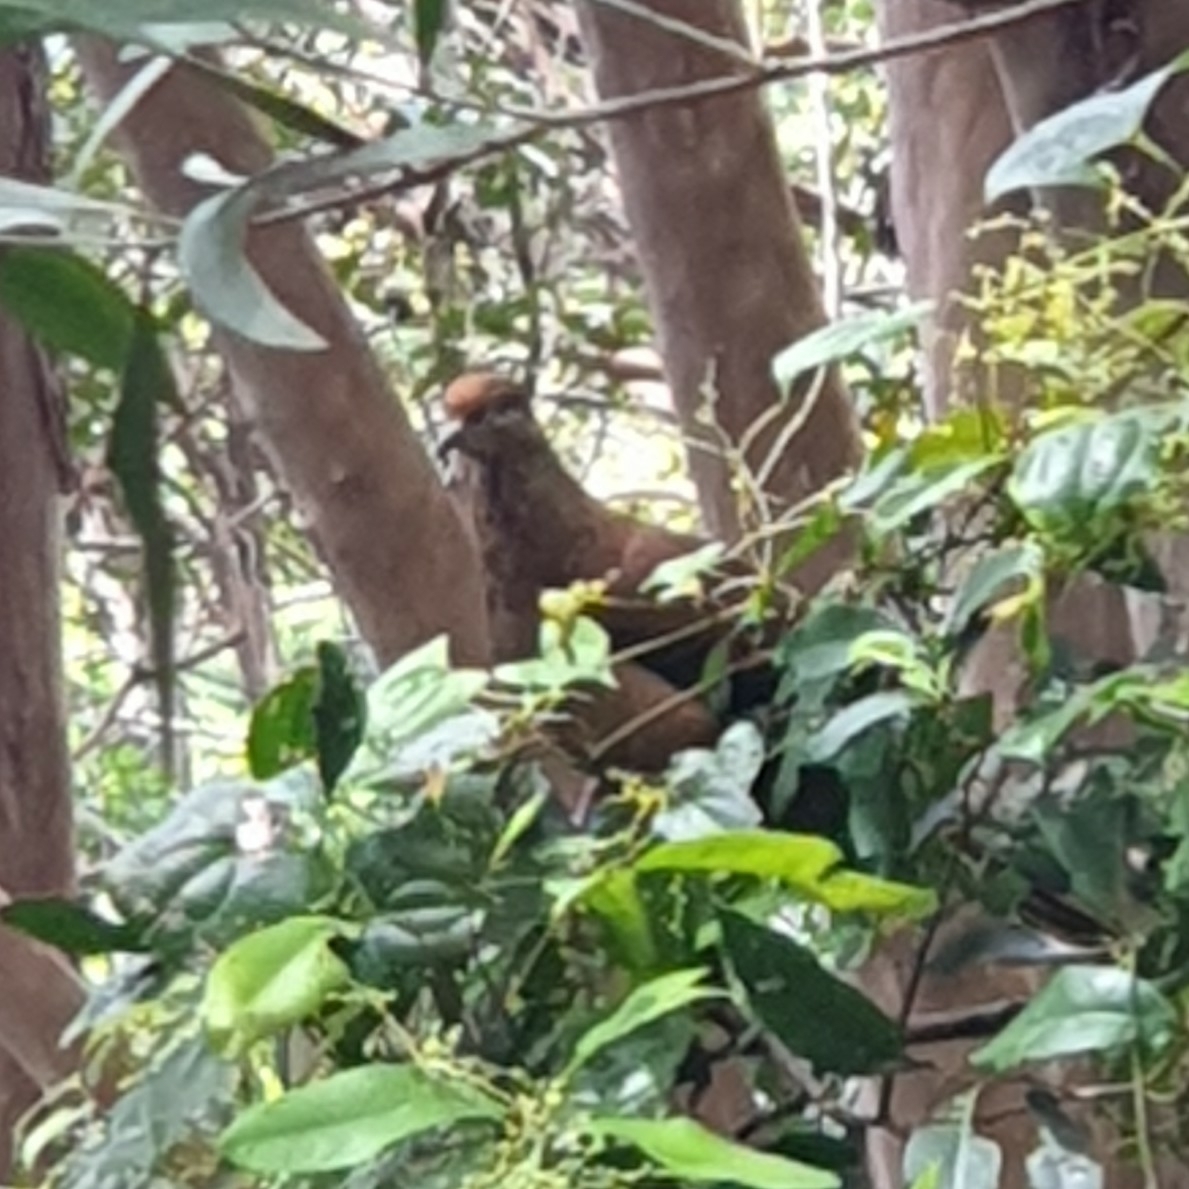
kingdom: Animalia
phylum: Chordata
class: Aves
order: Columbiformes
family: Columbidae
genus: Macropygia
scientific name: Macropygia phasianella
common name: Brown cuckoo-dove
